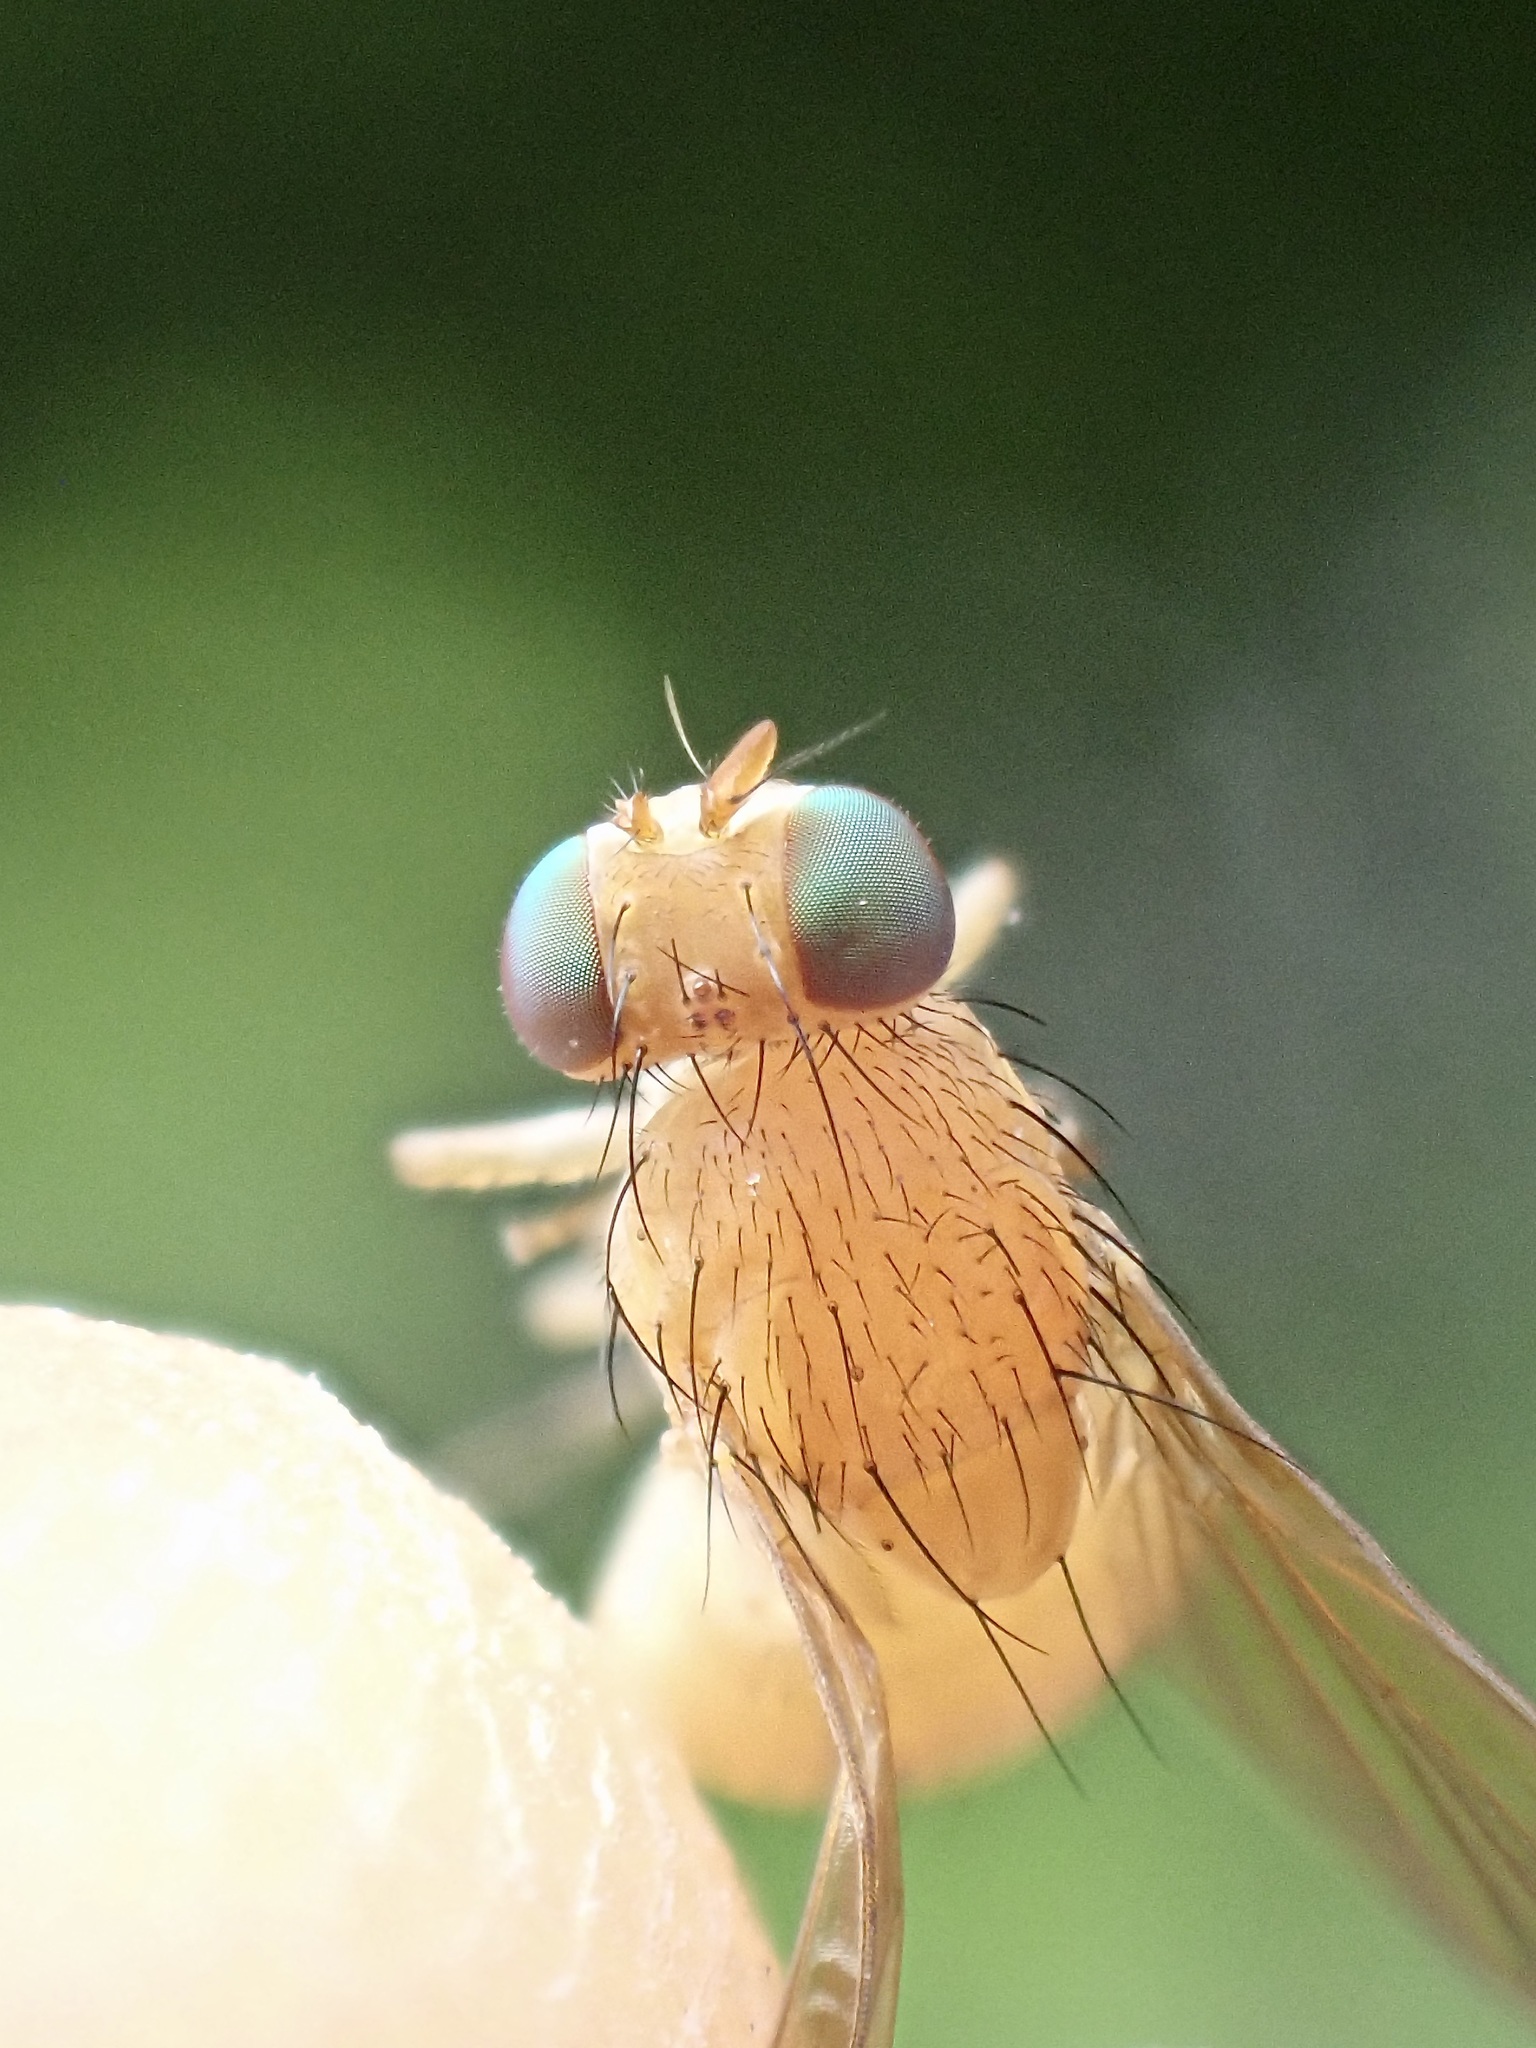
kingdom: Animalia
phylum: Arthropoda
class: Insecta
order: Diptera
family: Lauxaniidae
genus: Sapromyza
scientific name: Sapromyza sexpunctata
